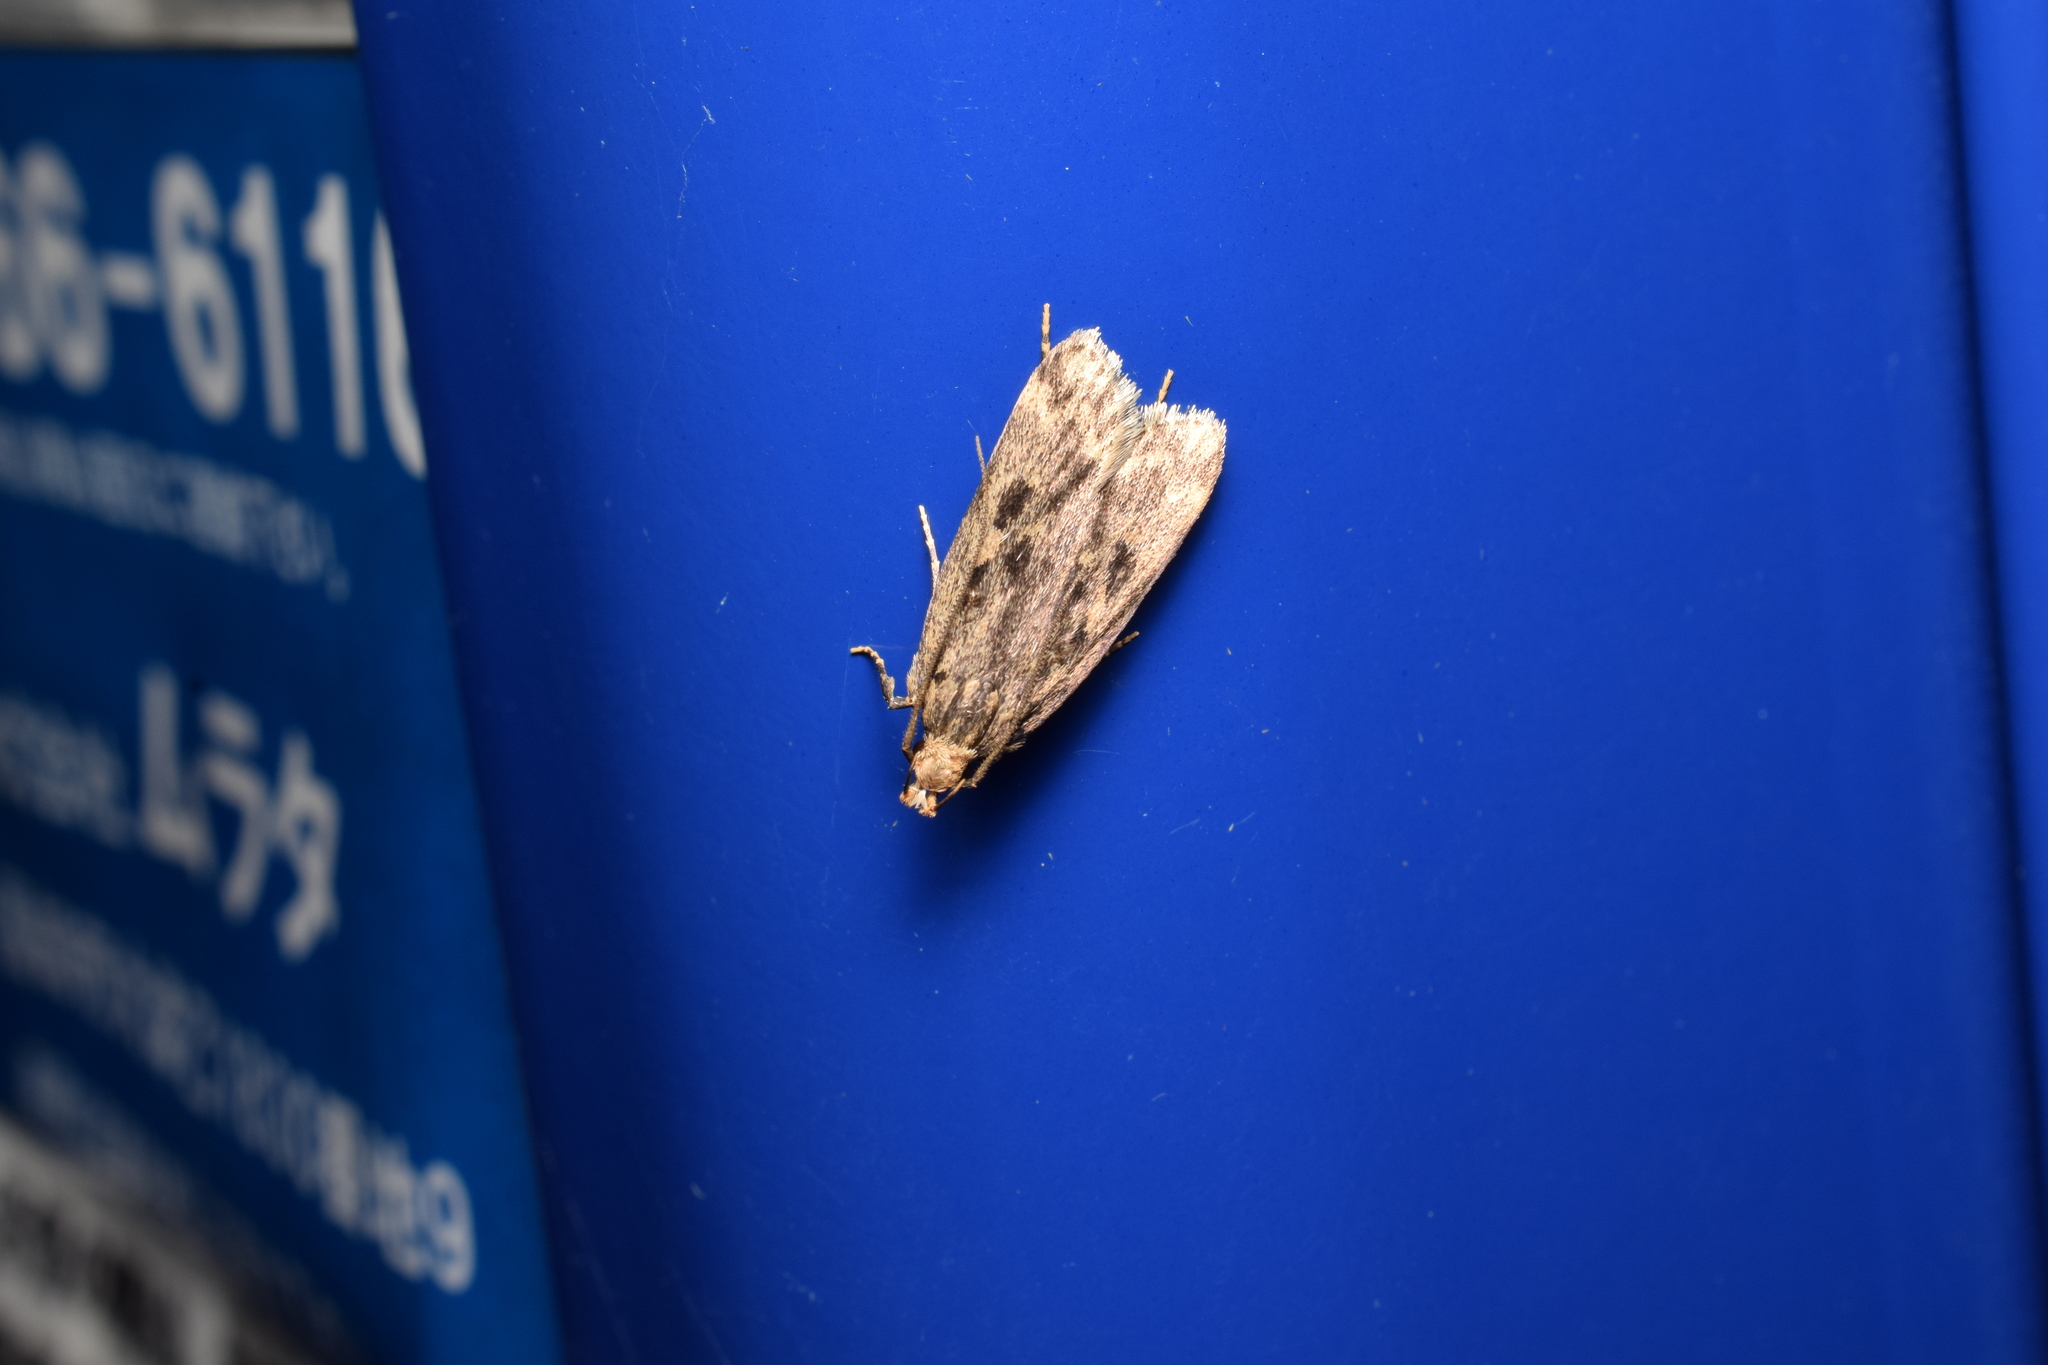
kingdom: Animalia
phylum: Arthropoda
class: Insecta
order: Lepidoptera
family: Lecithoceridae
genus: Martyringa
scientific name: Martyringa xeraula
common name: Himalayan grain moth
